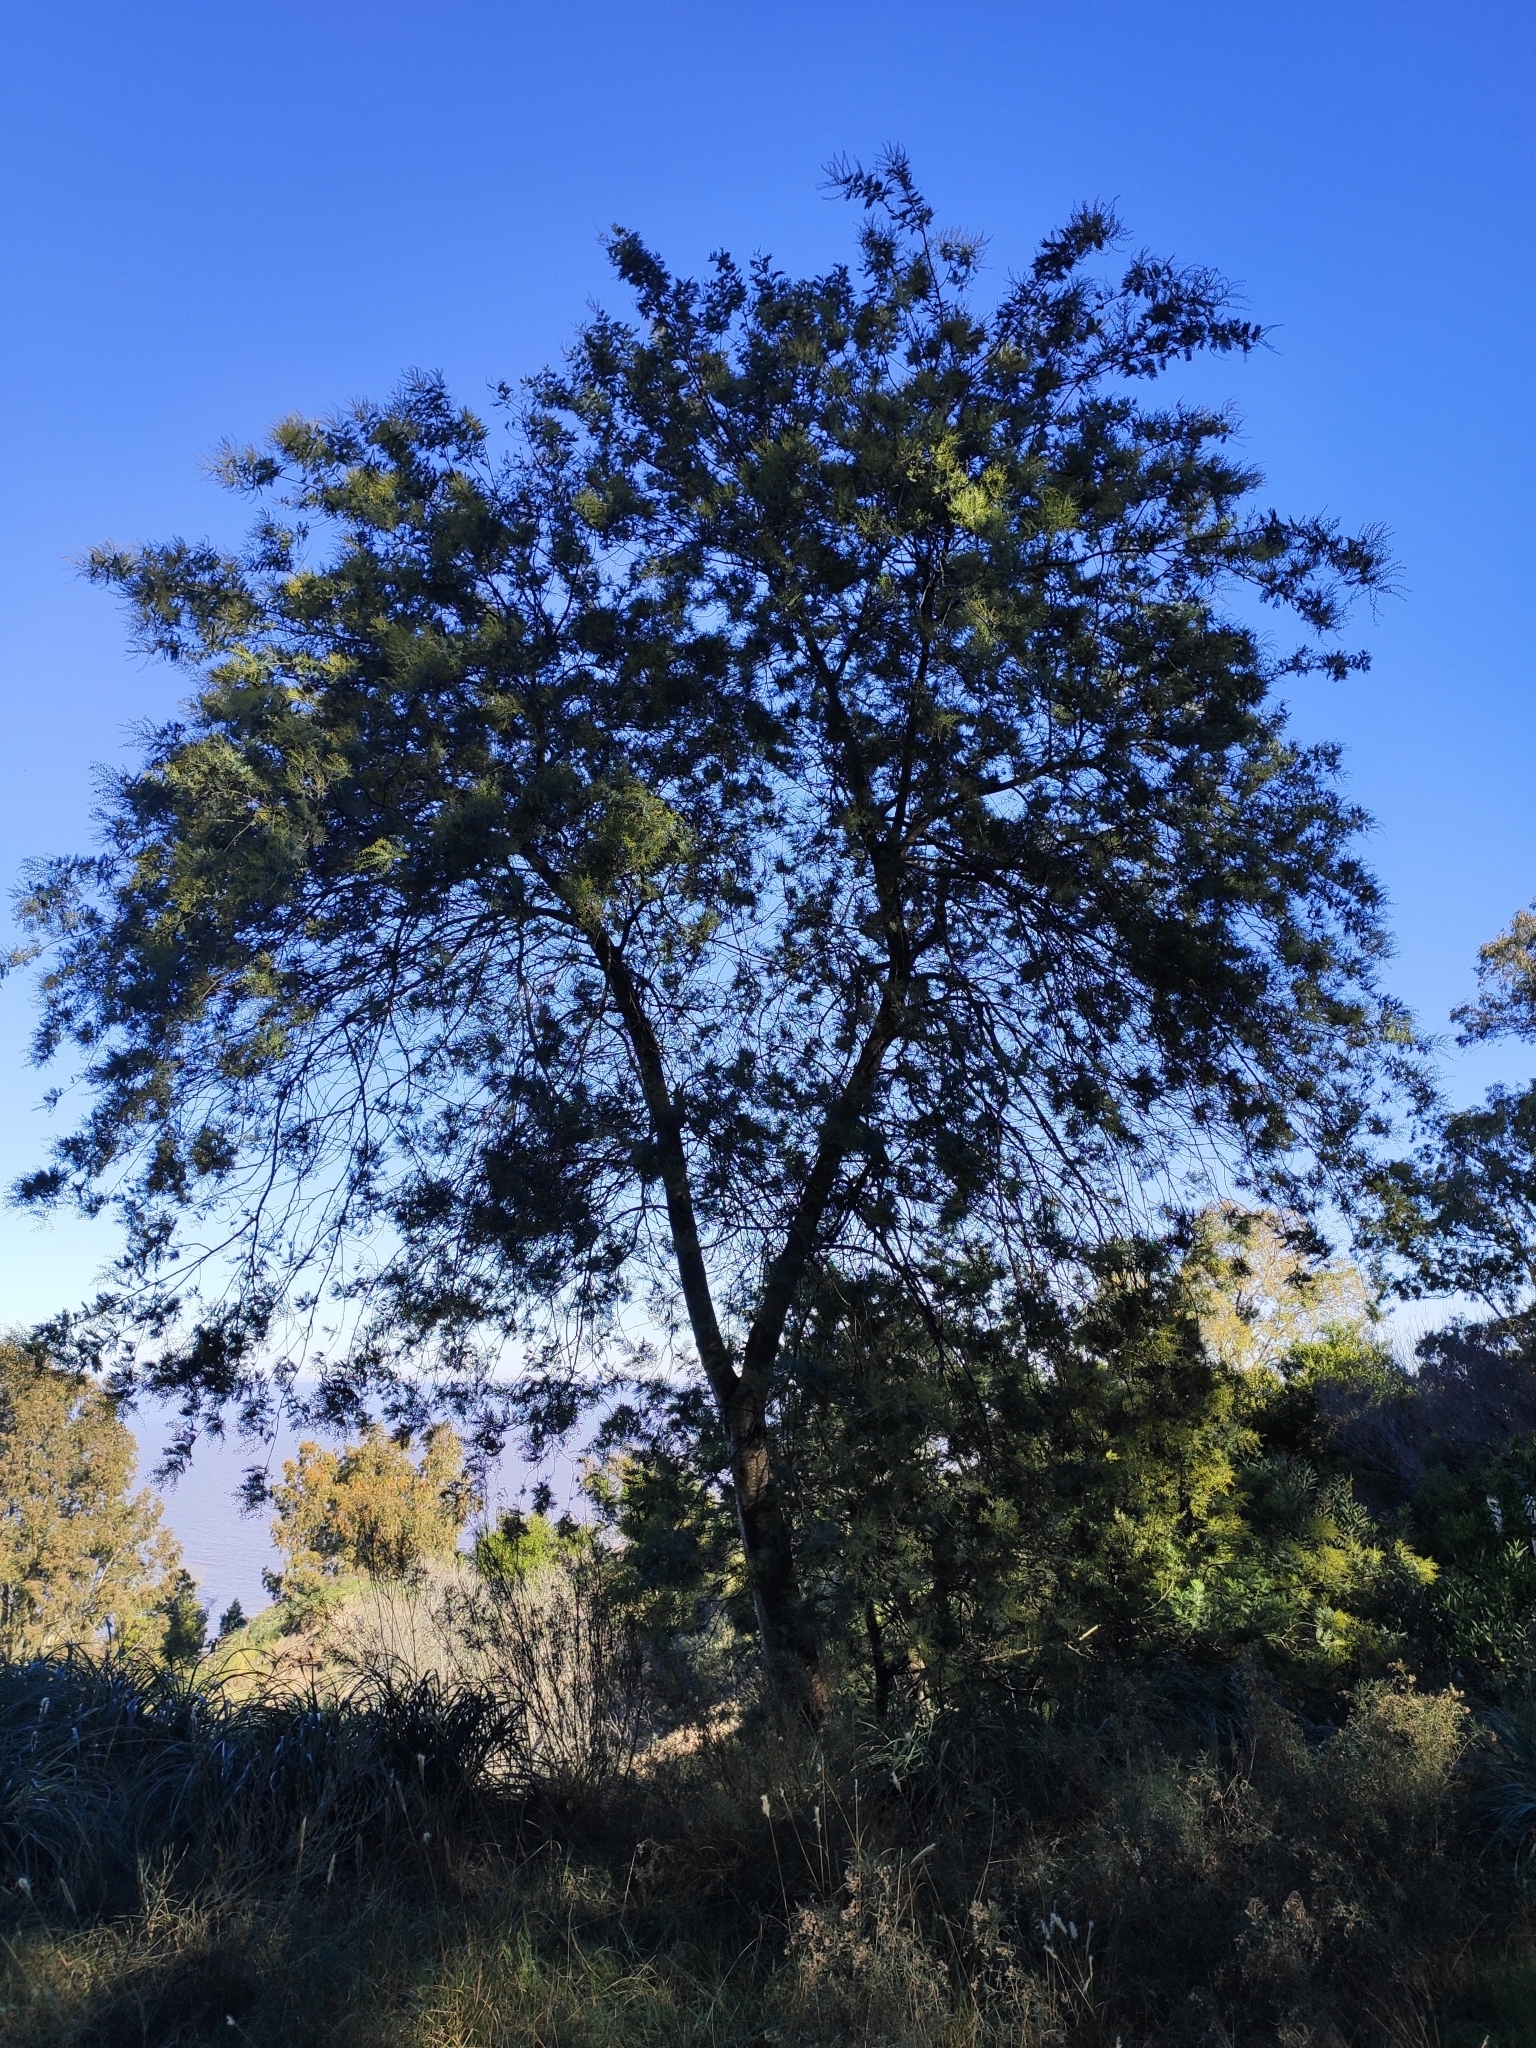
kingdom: Plantae
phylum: Tracheophyta
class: Magnoliopsida
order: Fabales
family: Fabaceae
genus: Acacia
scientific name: Acacia dealbata
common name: Silver wattle
